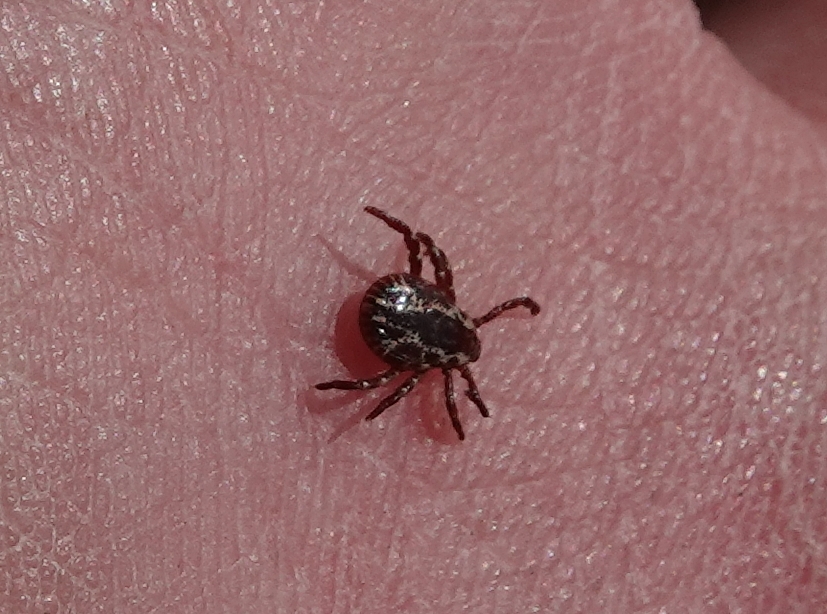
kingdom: Animalia
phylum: Arthropoda
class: Arachnida
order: Ixodida
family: Ixodidae
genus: Dermacentor
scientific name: Dermacentor variabilis
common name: American dog tick
